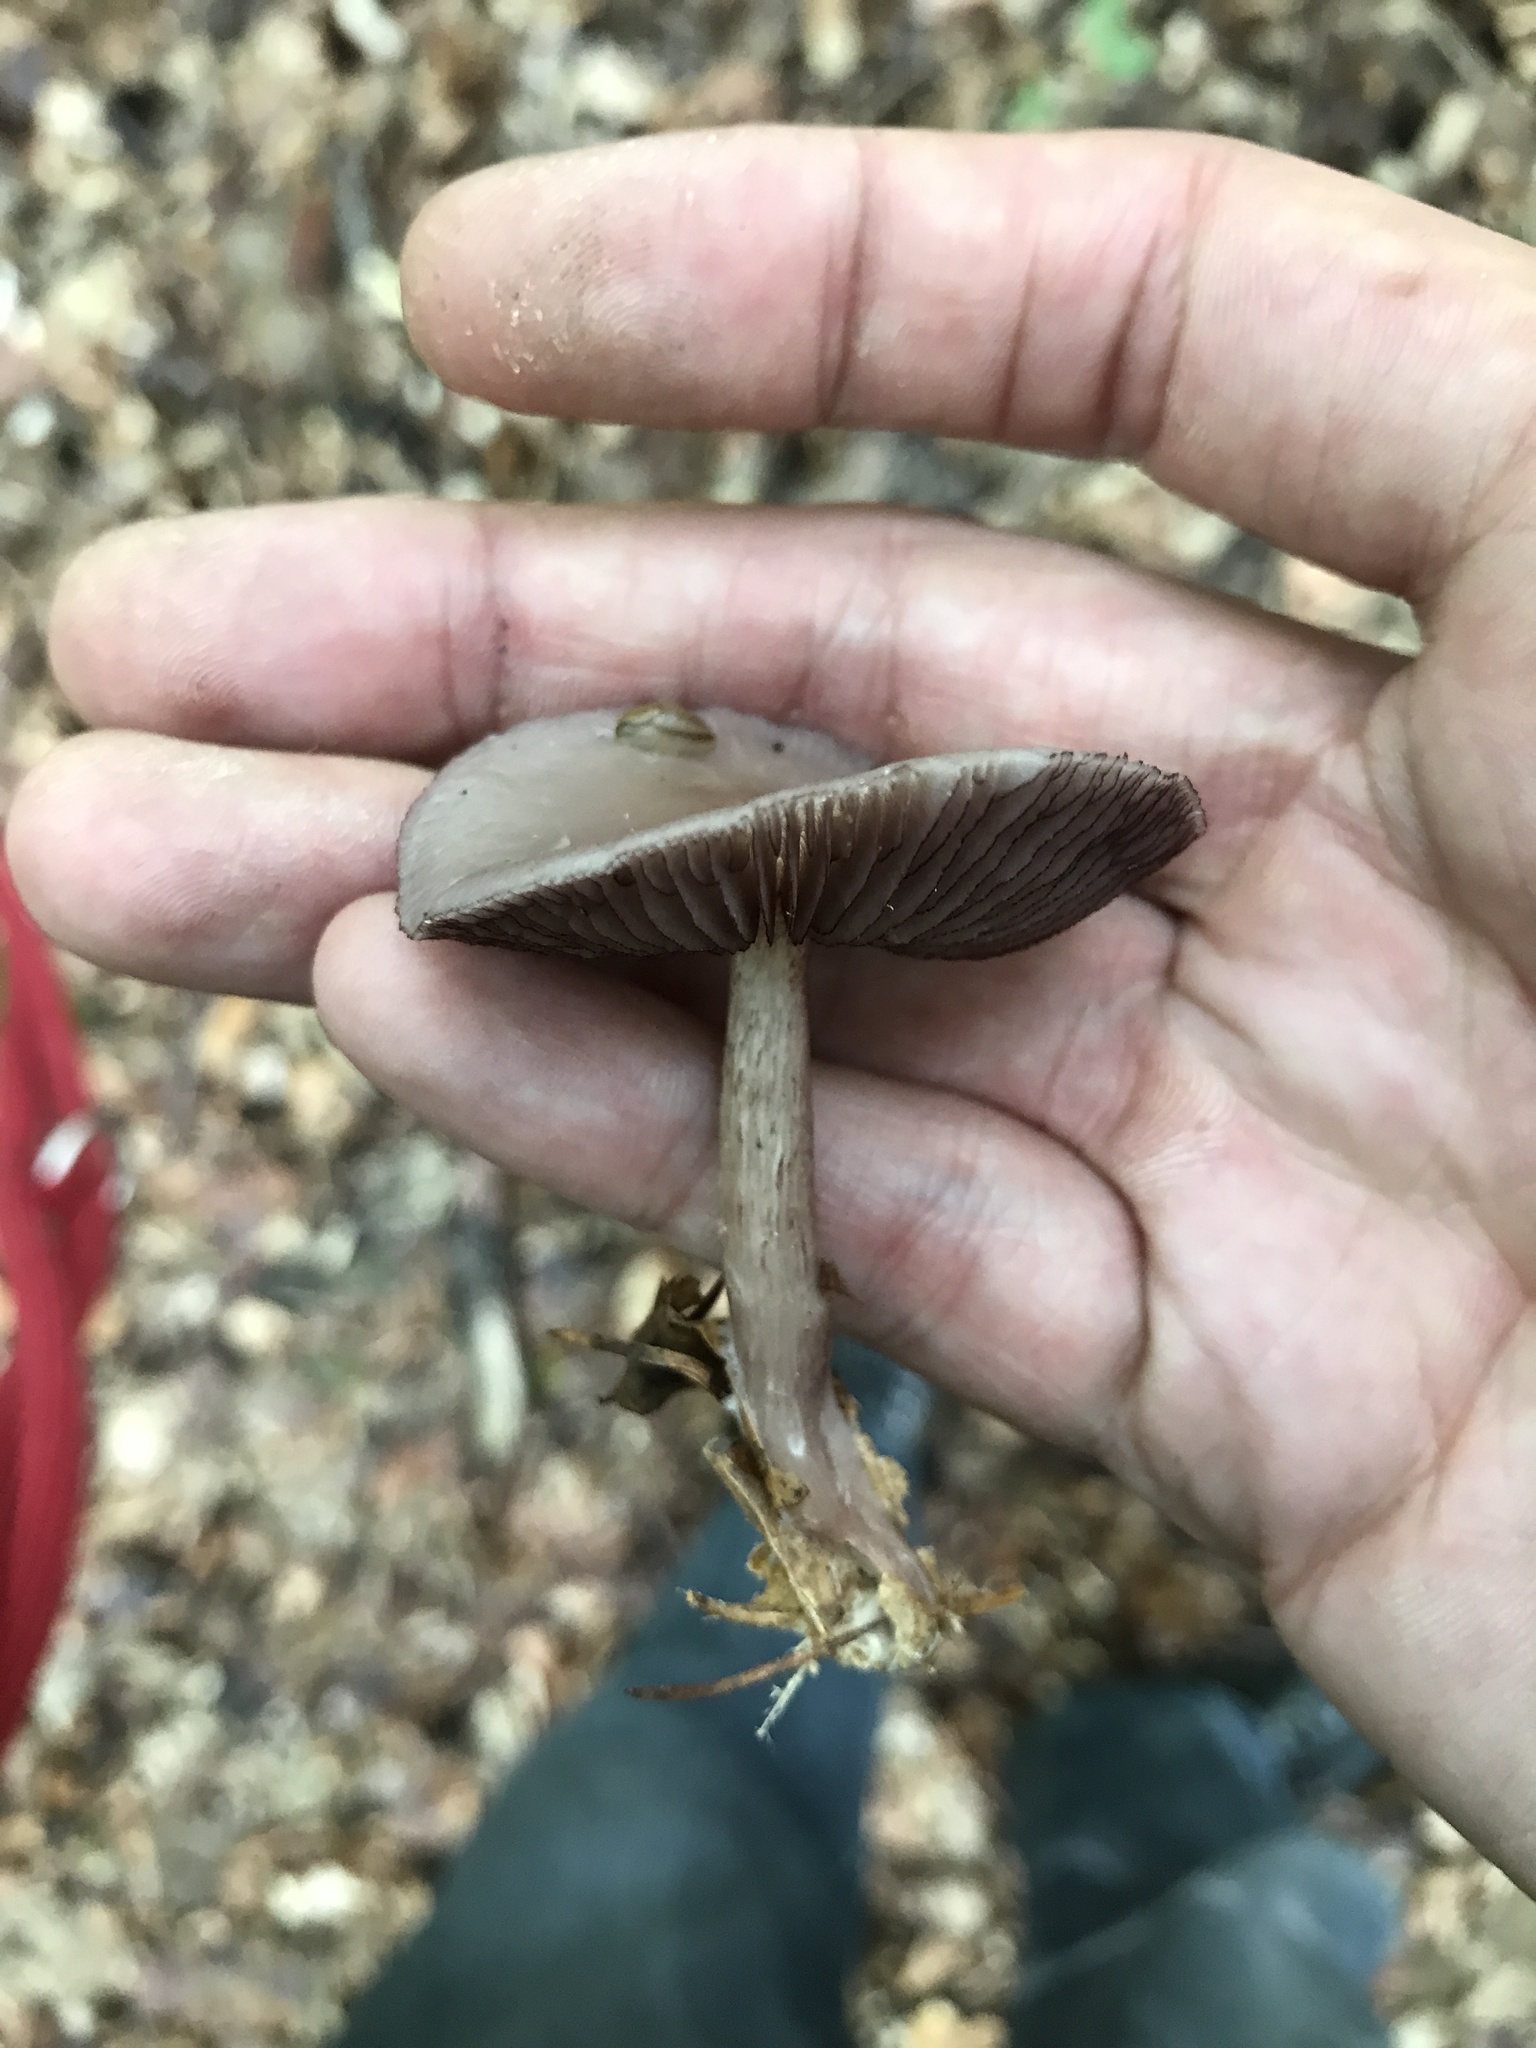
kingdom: Fungi
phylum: Basidiomycota
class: Agaricomycetes
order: Agaricales
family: Mycenaceae
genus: Mycena
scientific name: Mycena pelianthina
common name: Blackedge bonnet
